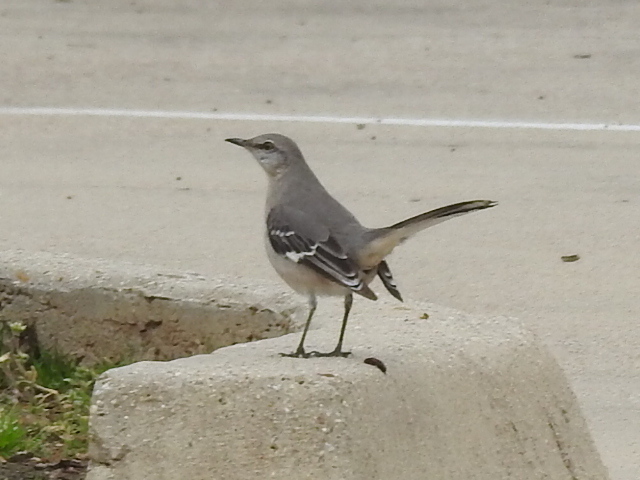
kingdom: Animalia
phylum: Chordata
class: Aves
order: Passeriformes
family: Mimidae
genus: Mimus
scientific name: Mimus polyglottos
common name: Northern mockingbird
